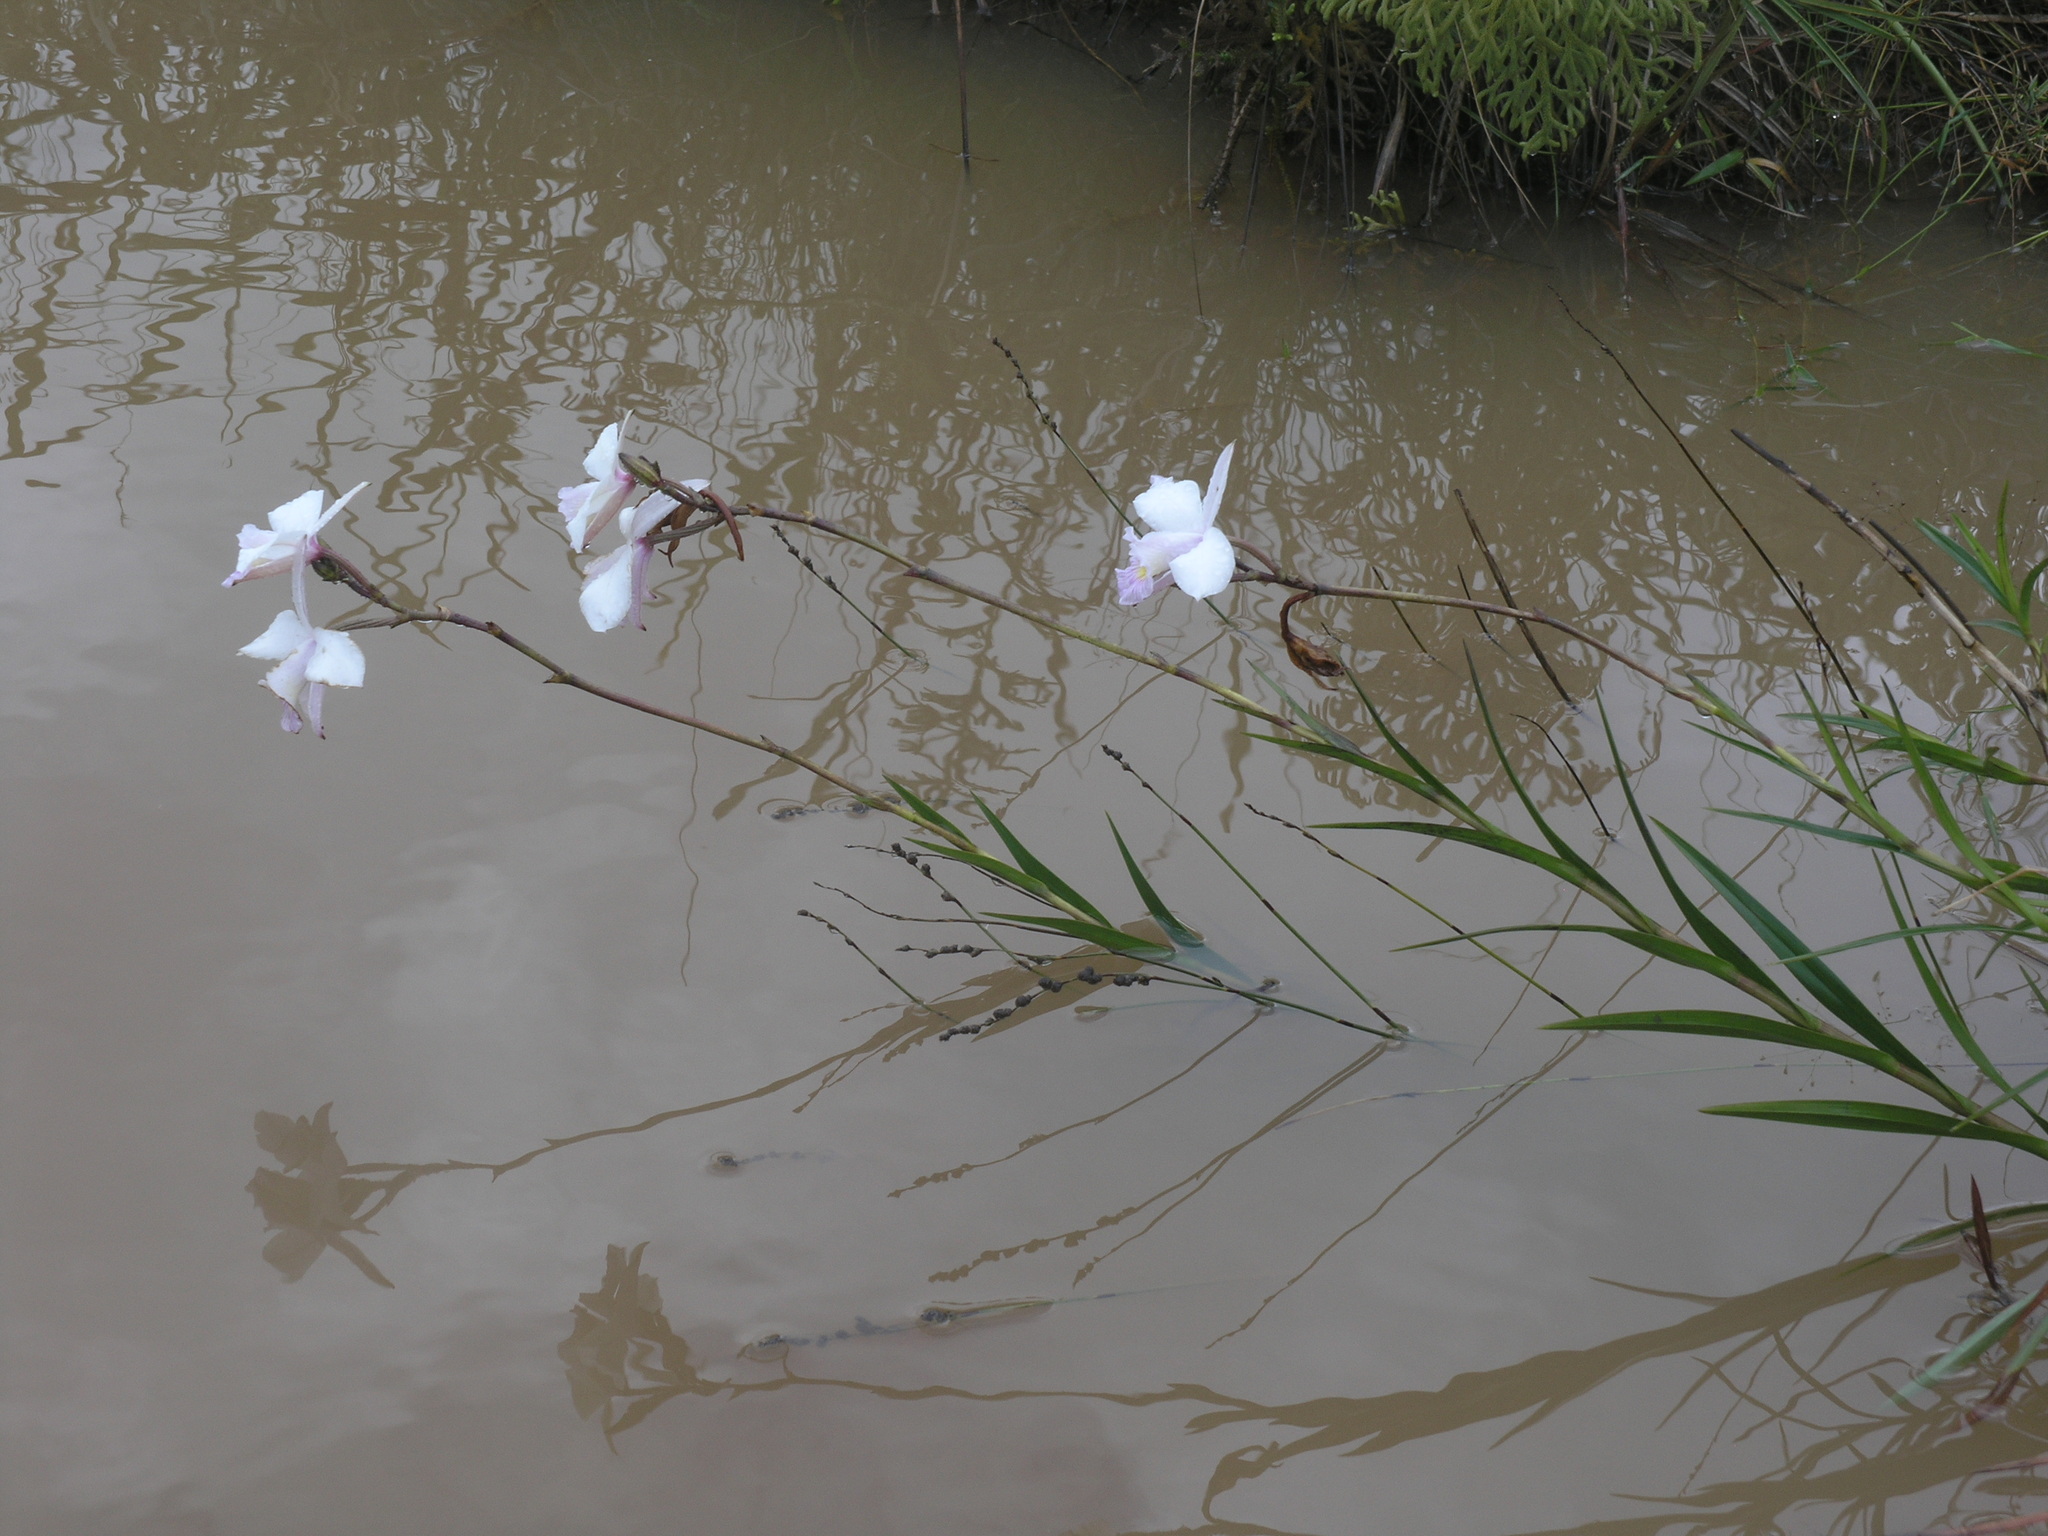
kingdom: Plantae
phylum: Tracheophyta
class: Liliopsida
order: Asparagales
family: Orchidaceae
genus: Arundina
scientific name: Arundina graminifolia
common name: Bamboo orchid
